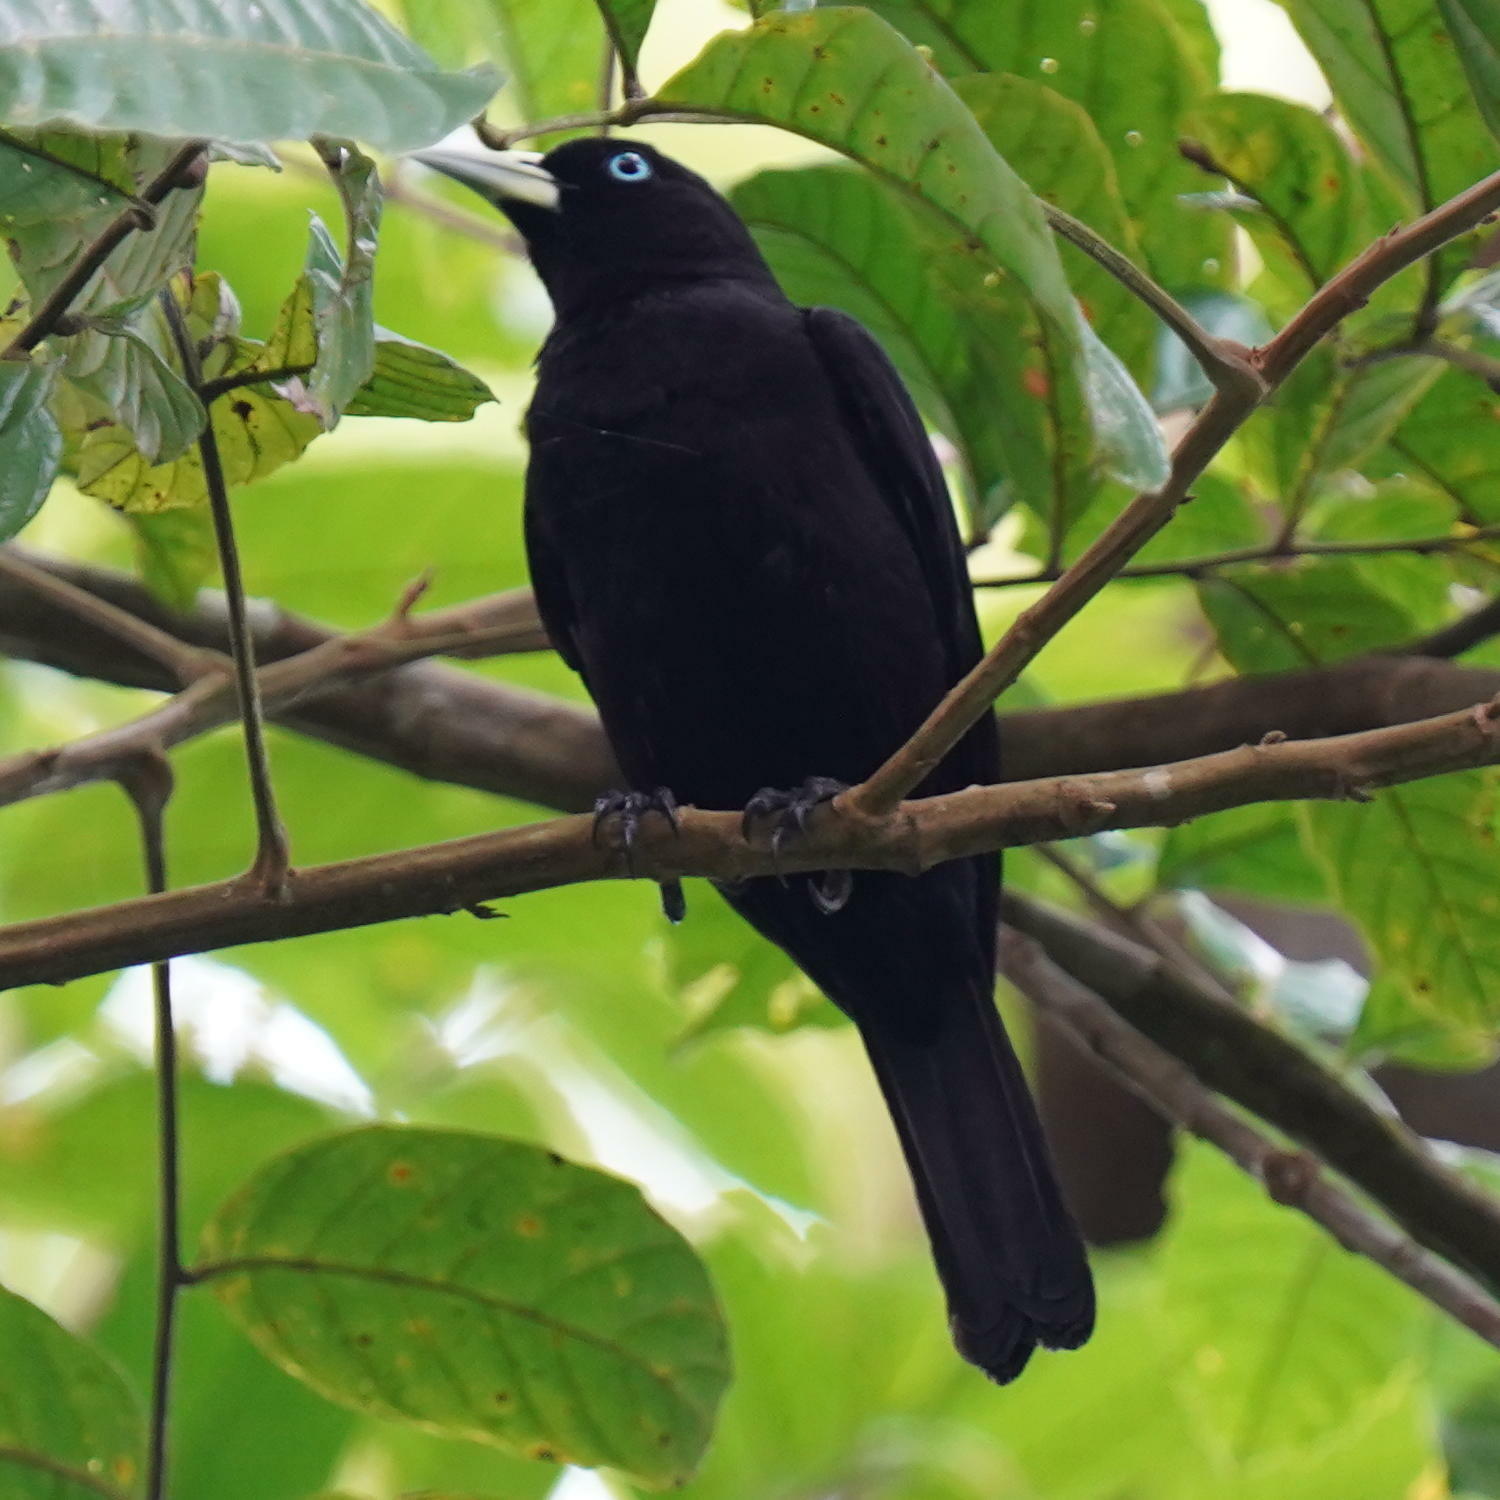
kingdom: Animalia
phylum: Chordata
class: Aves
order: Passeriformes
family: Icteridae
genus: Cacicus
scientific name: Cacicus uropygialis
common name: Scarlet-rumped cacique
